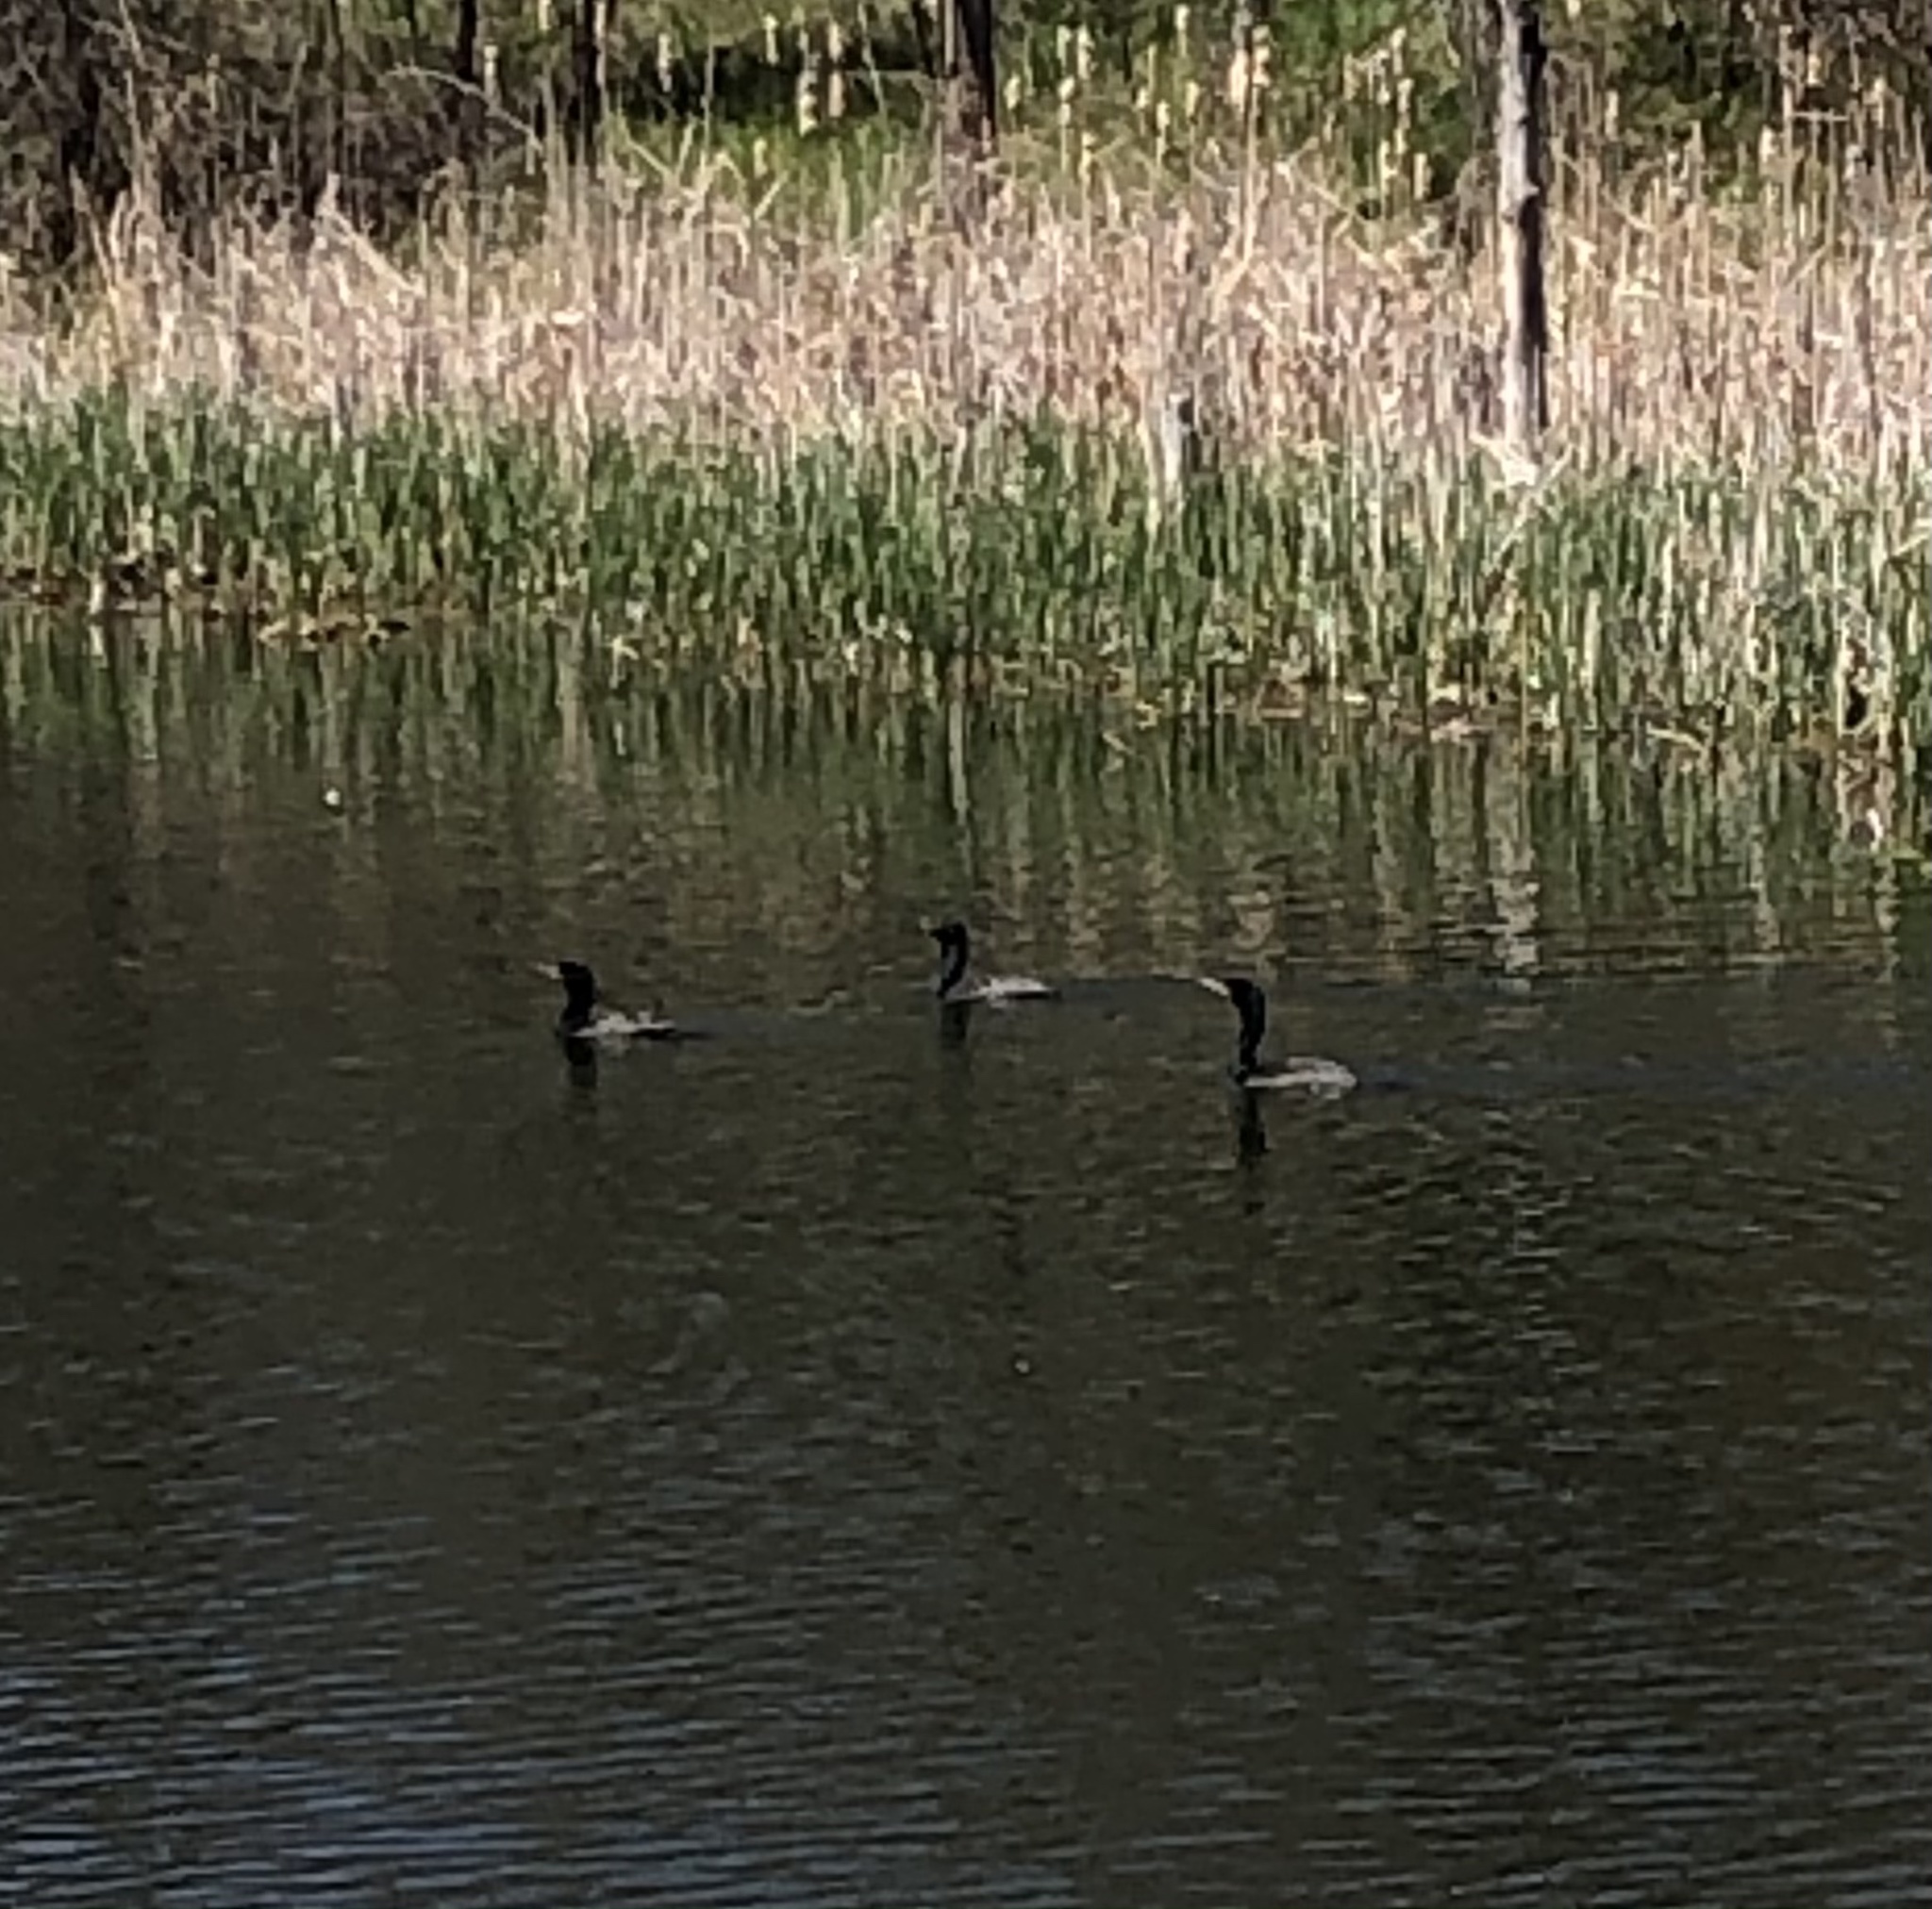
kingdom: Animalia
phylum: Chordata
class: Aves
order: Suliformes
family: Phalacrocoracidae
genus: Phalacrocorax
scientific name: Phalacrocorax auritus
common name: Double-crested cormorant
